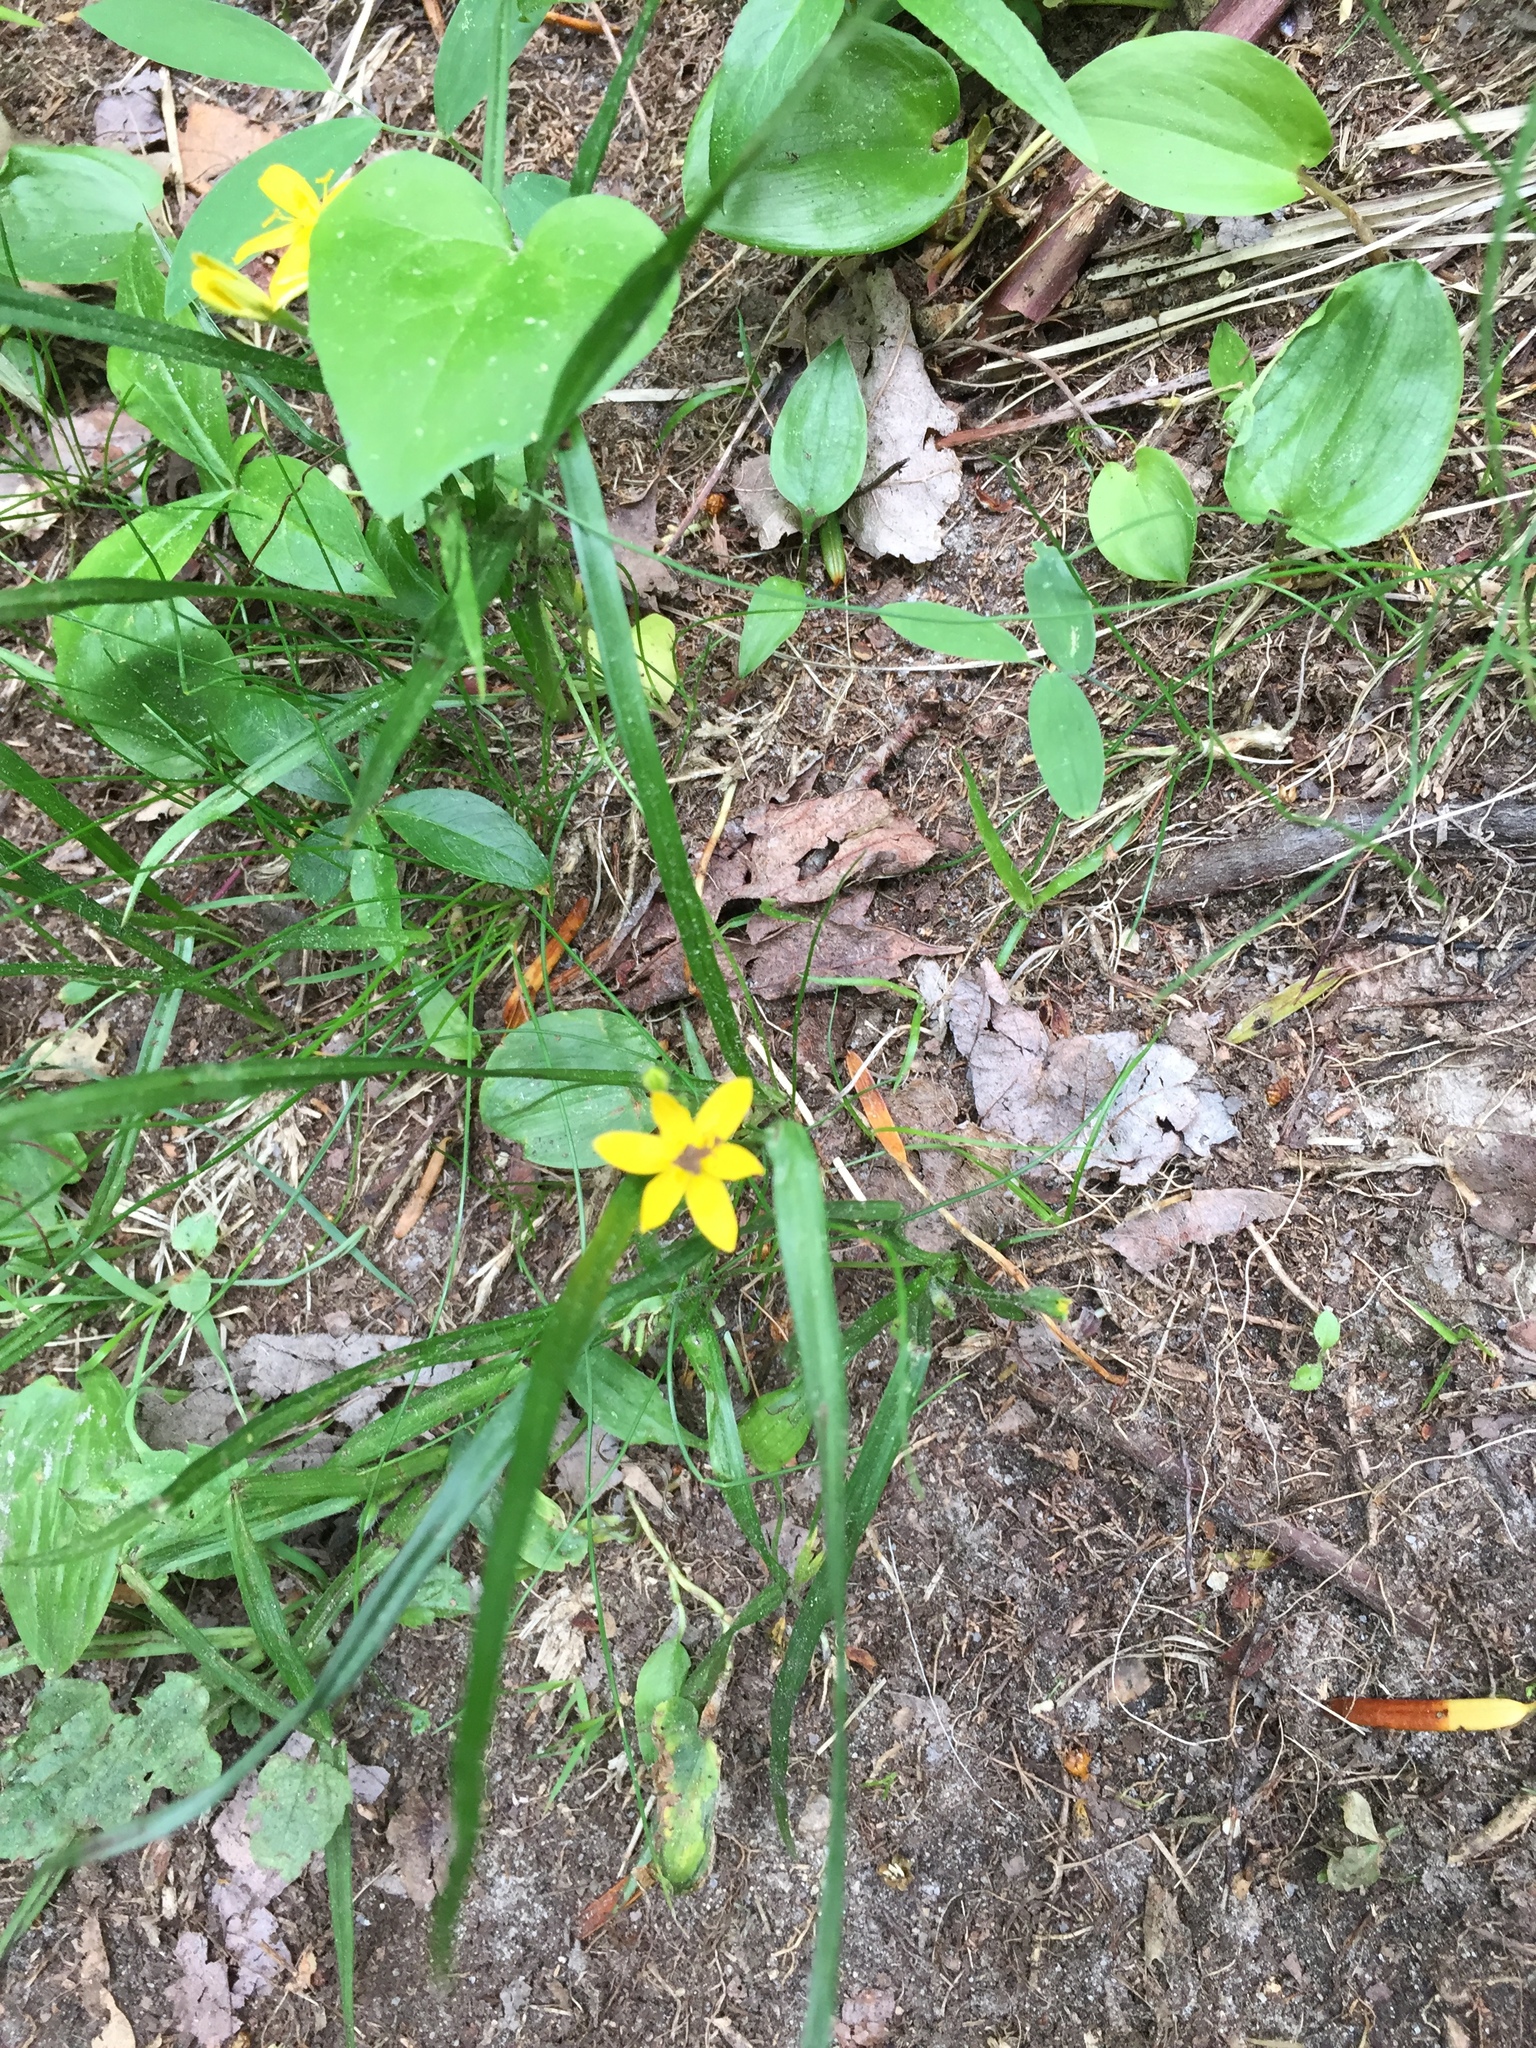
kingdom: Plantae
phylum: Tracheophyta
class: Liliopsida
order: Asparagales
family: Hypoxidaceae
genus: Hypoxis
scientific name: Hypoxis hirsuta
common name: Common goldstar
